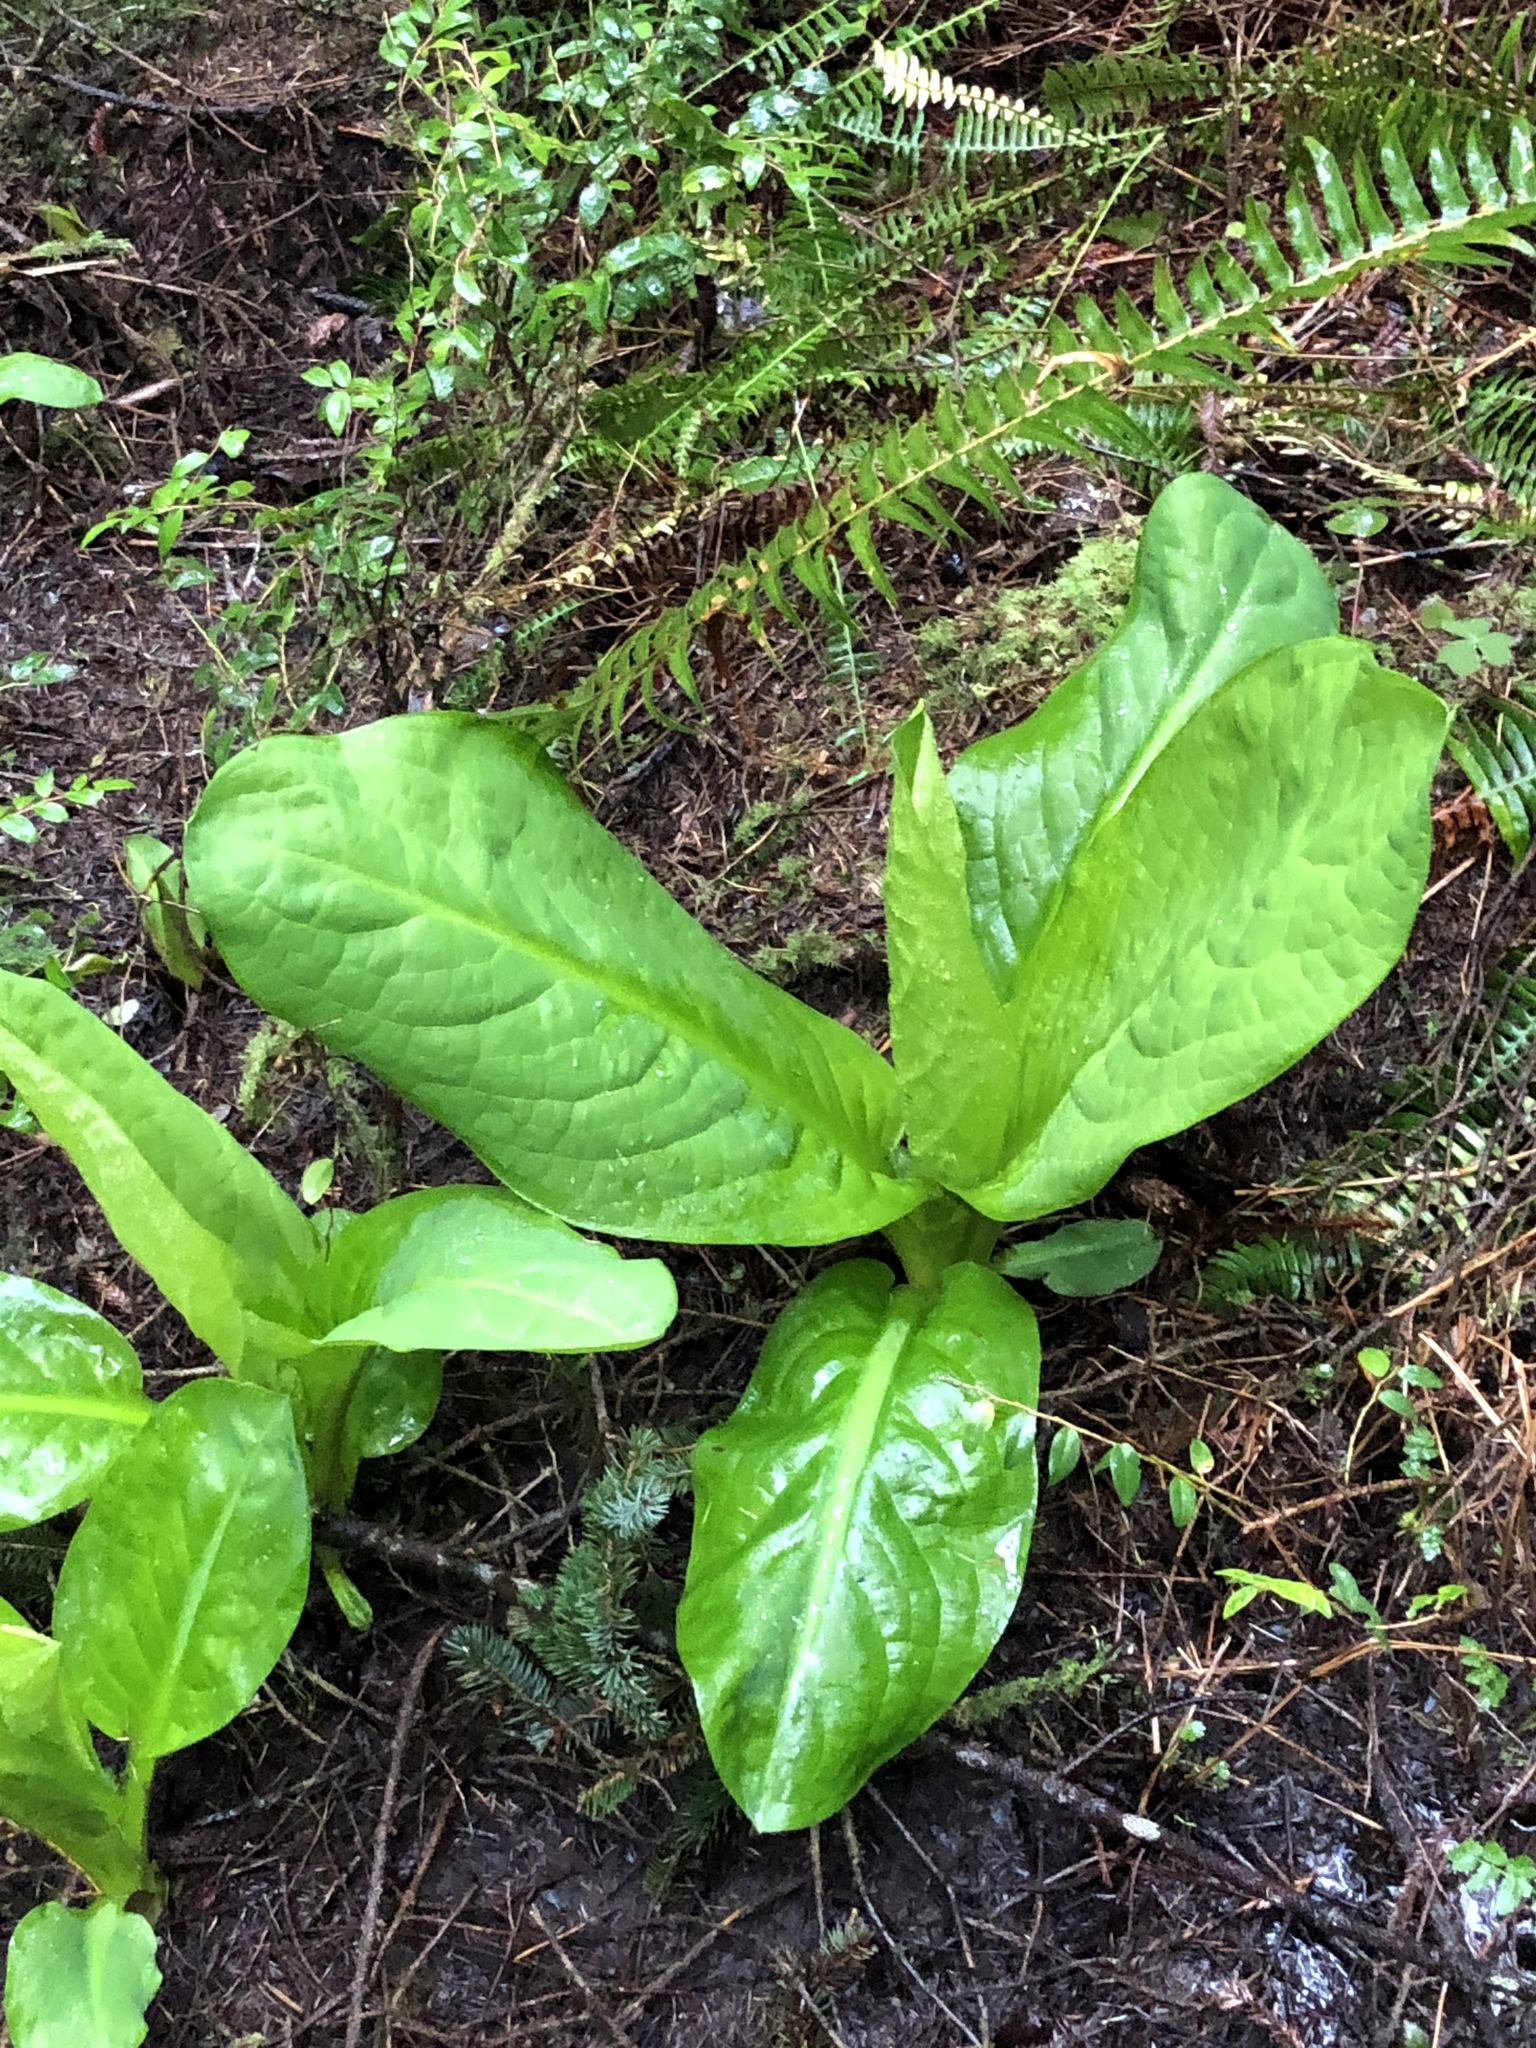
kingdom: Plantae
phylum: Tracheophyta
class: Liliopsida
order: Alismatales
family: Araceae
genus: Lysichiton
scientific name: Lysichiton americanus
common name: American skunk cabbage
